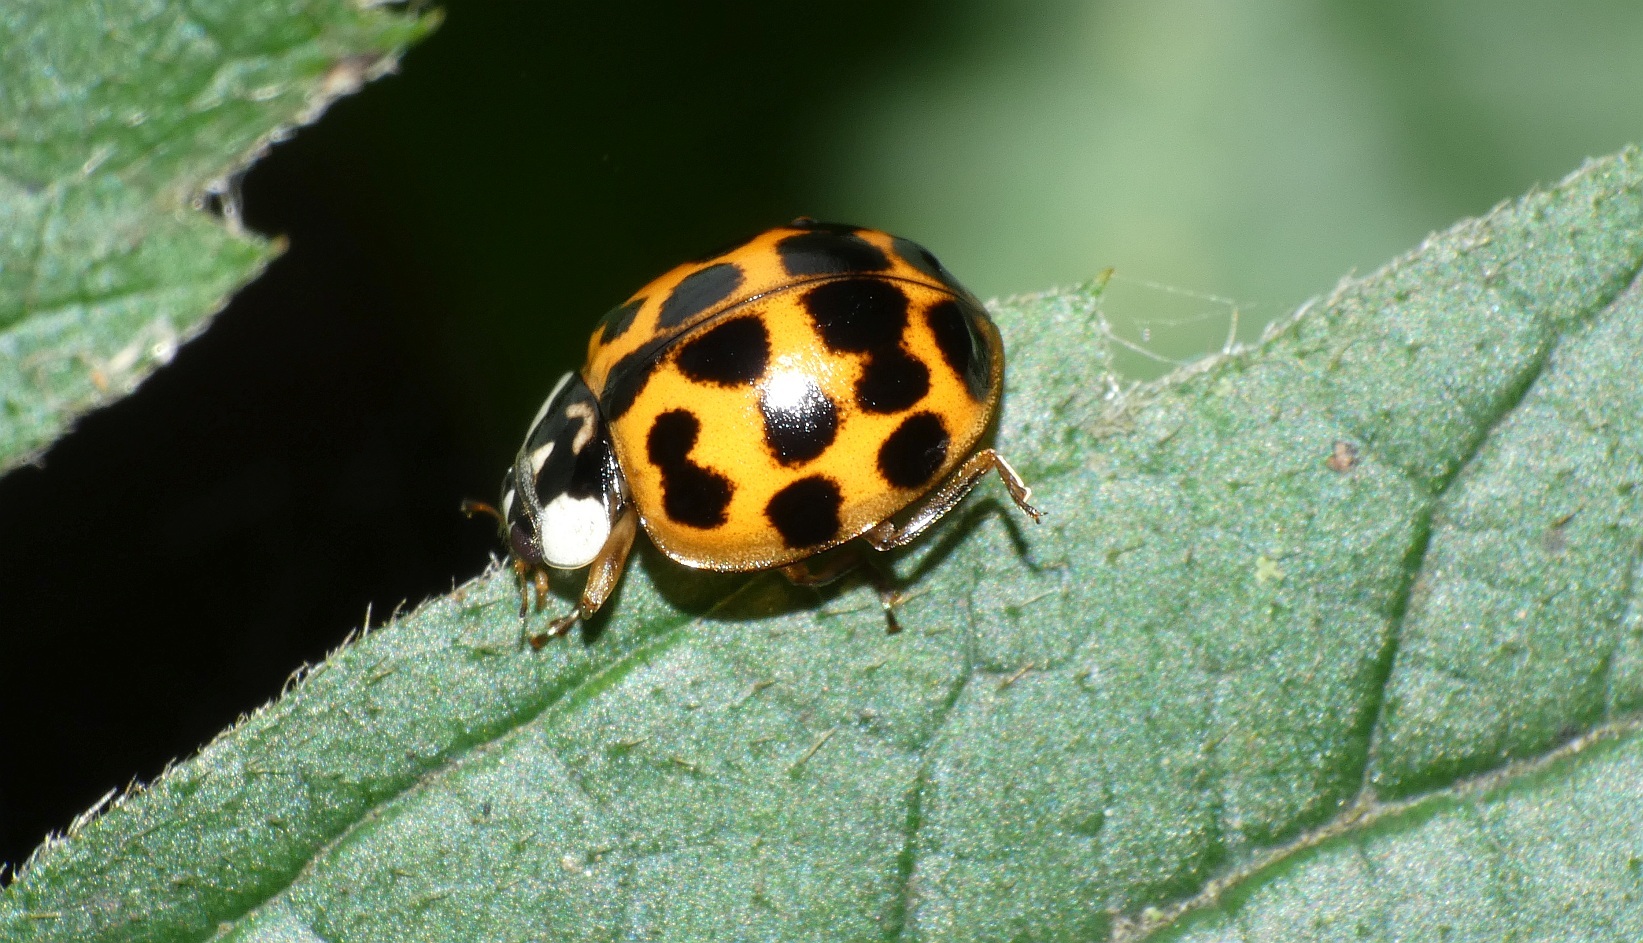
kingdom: Animalia
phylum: Arthropoda
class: Insecta
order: Coleoptera
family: Coccinellidae
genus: Harmonia
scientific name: Harmonia axyridis
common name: Harlequin ladybird
